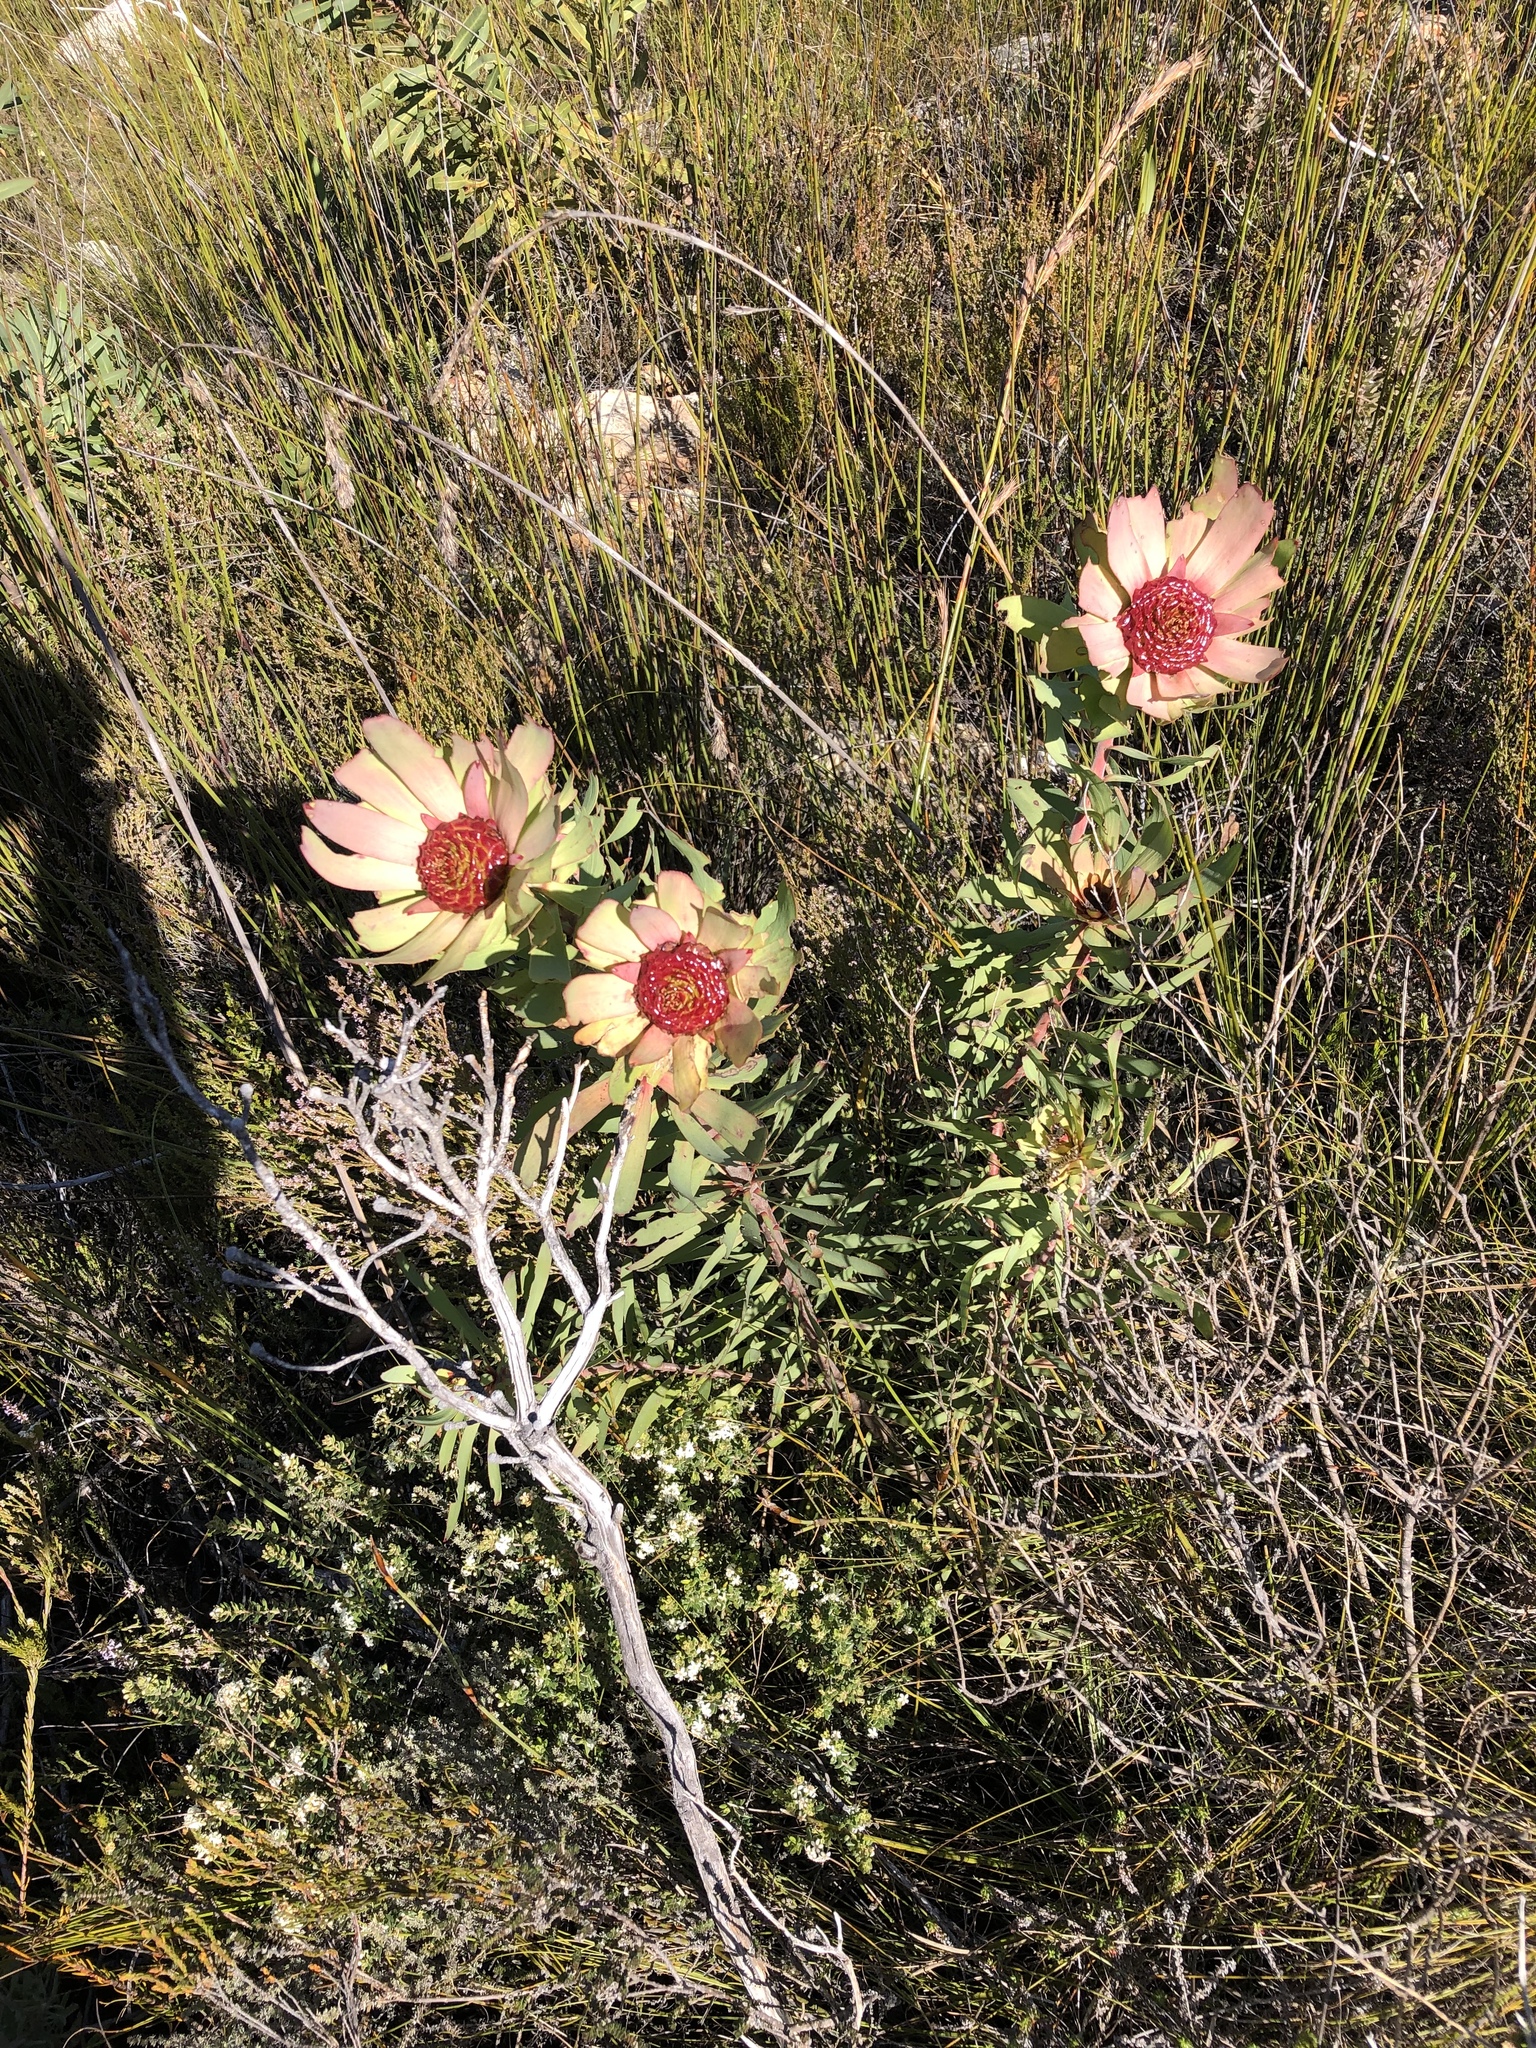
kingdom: Plantae
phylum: Tracheophyta
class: Magnoliopsida
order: Proteales
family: Proteaceae
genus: Leucadendron
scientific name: Leucadendron pubibracteolatum
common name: Purple-leaf conebush
